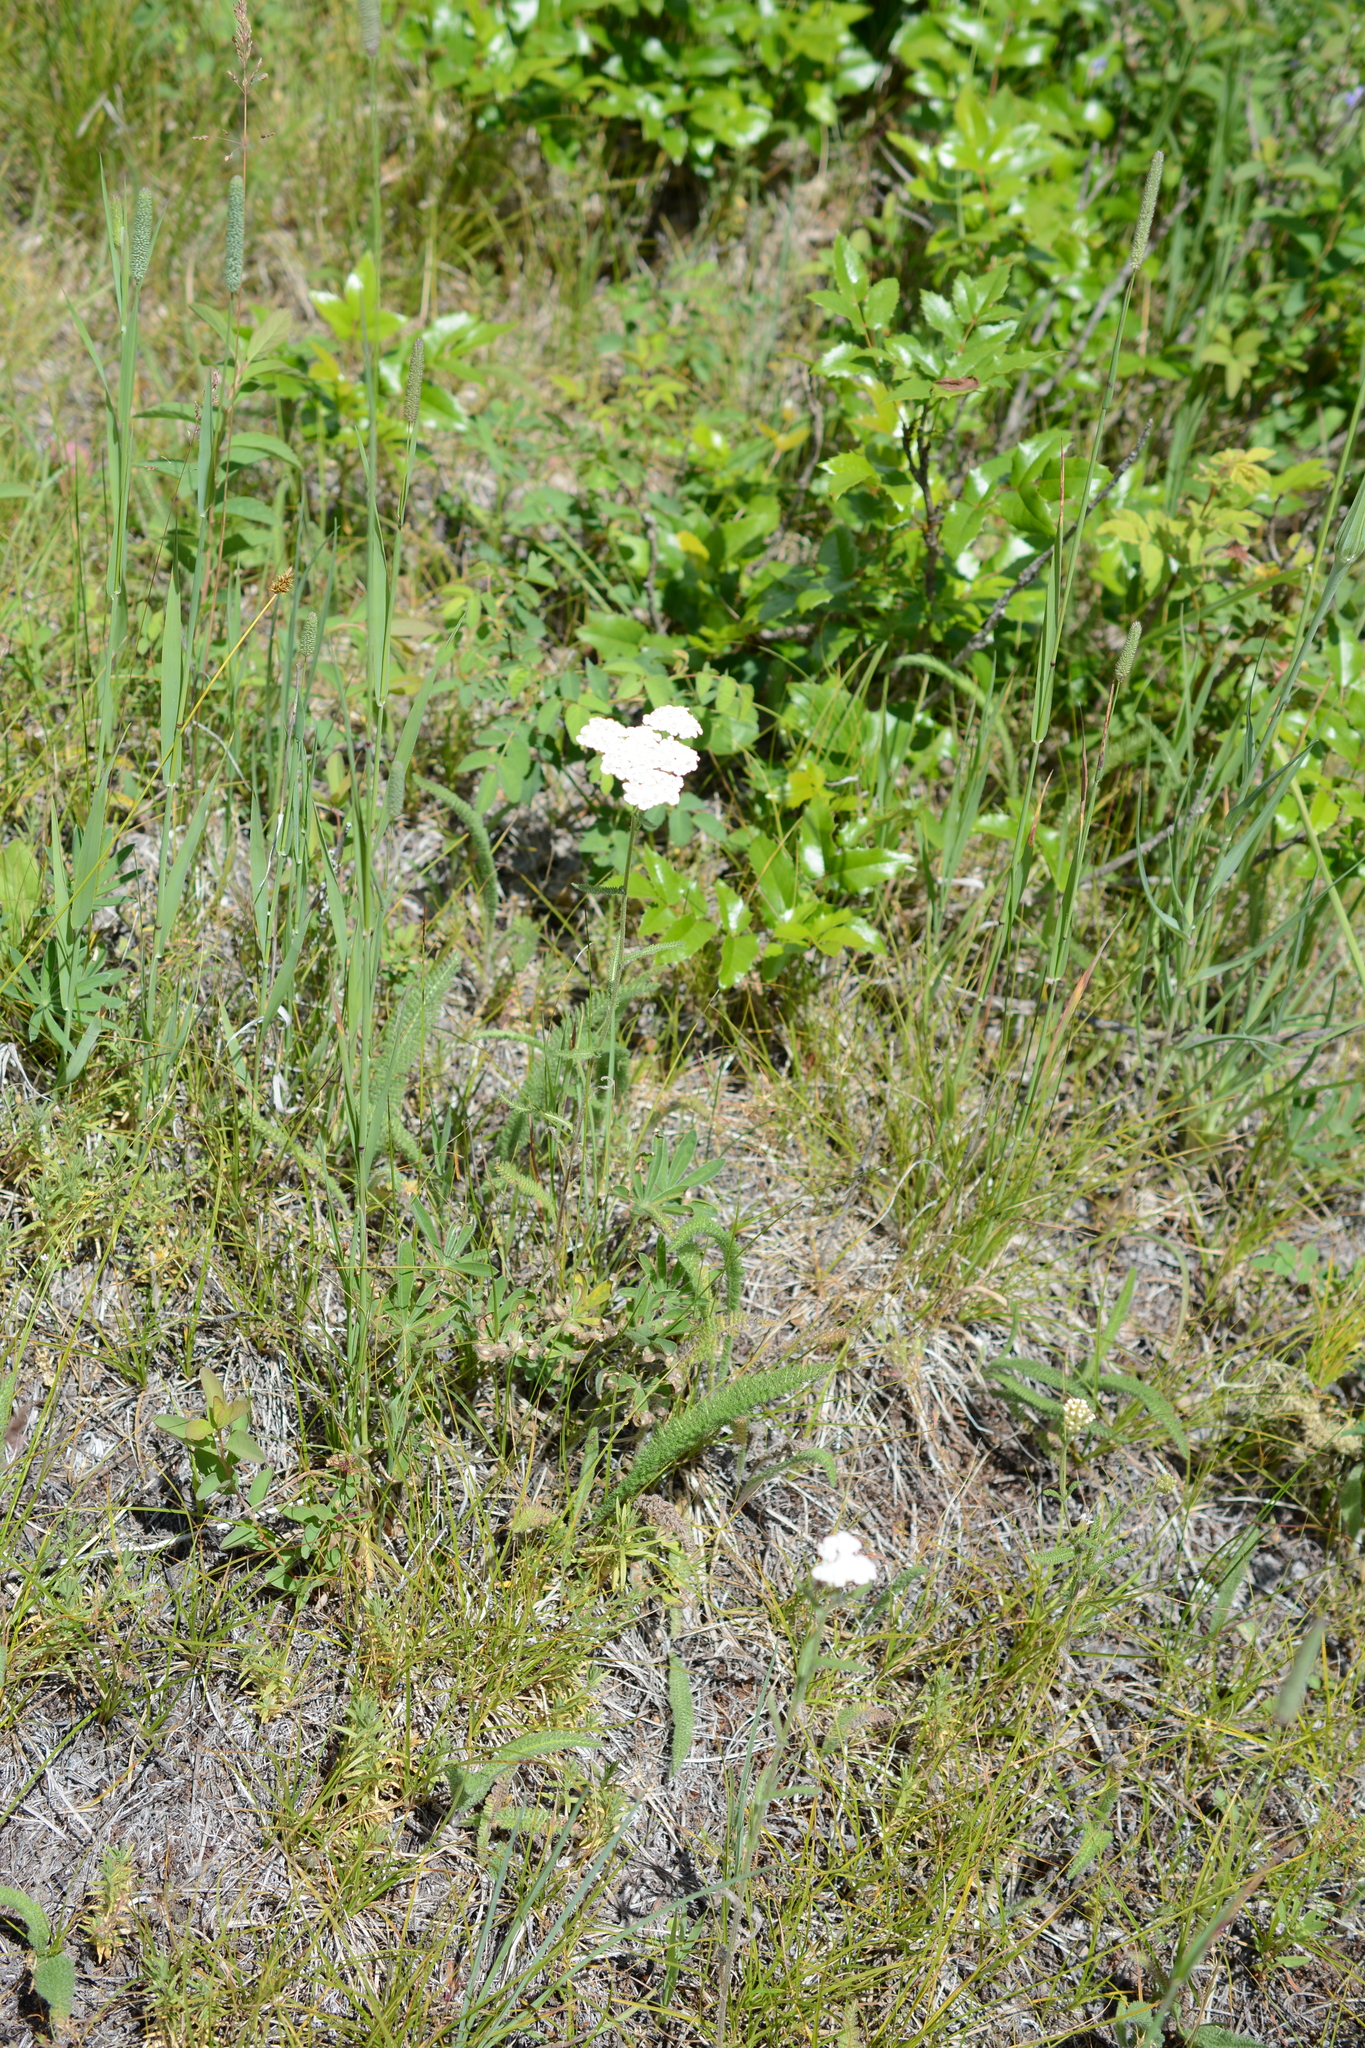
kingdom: Plantae
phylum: Tracheophyta
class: Magnoliopsida
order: Asterales
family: Asteraceae
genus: Achillea
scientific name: Achillea millefolium
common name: Yarrow
